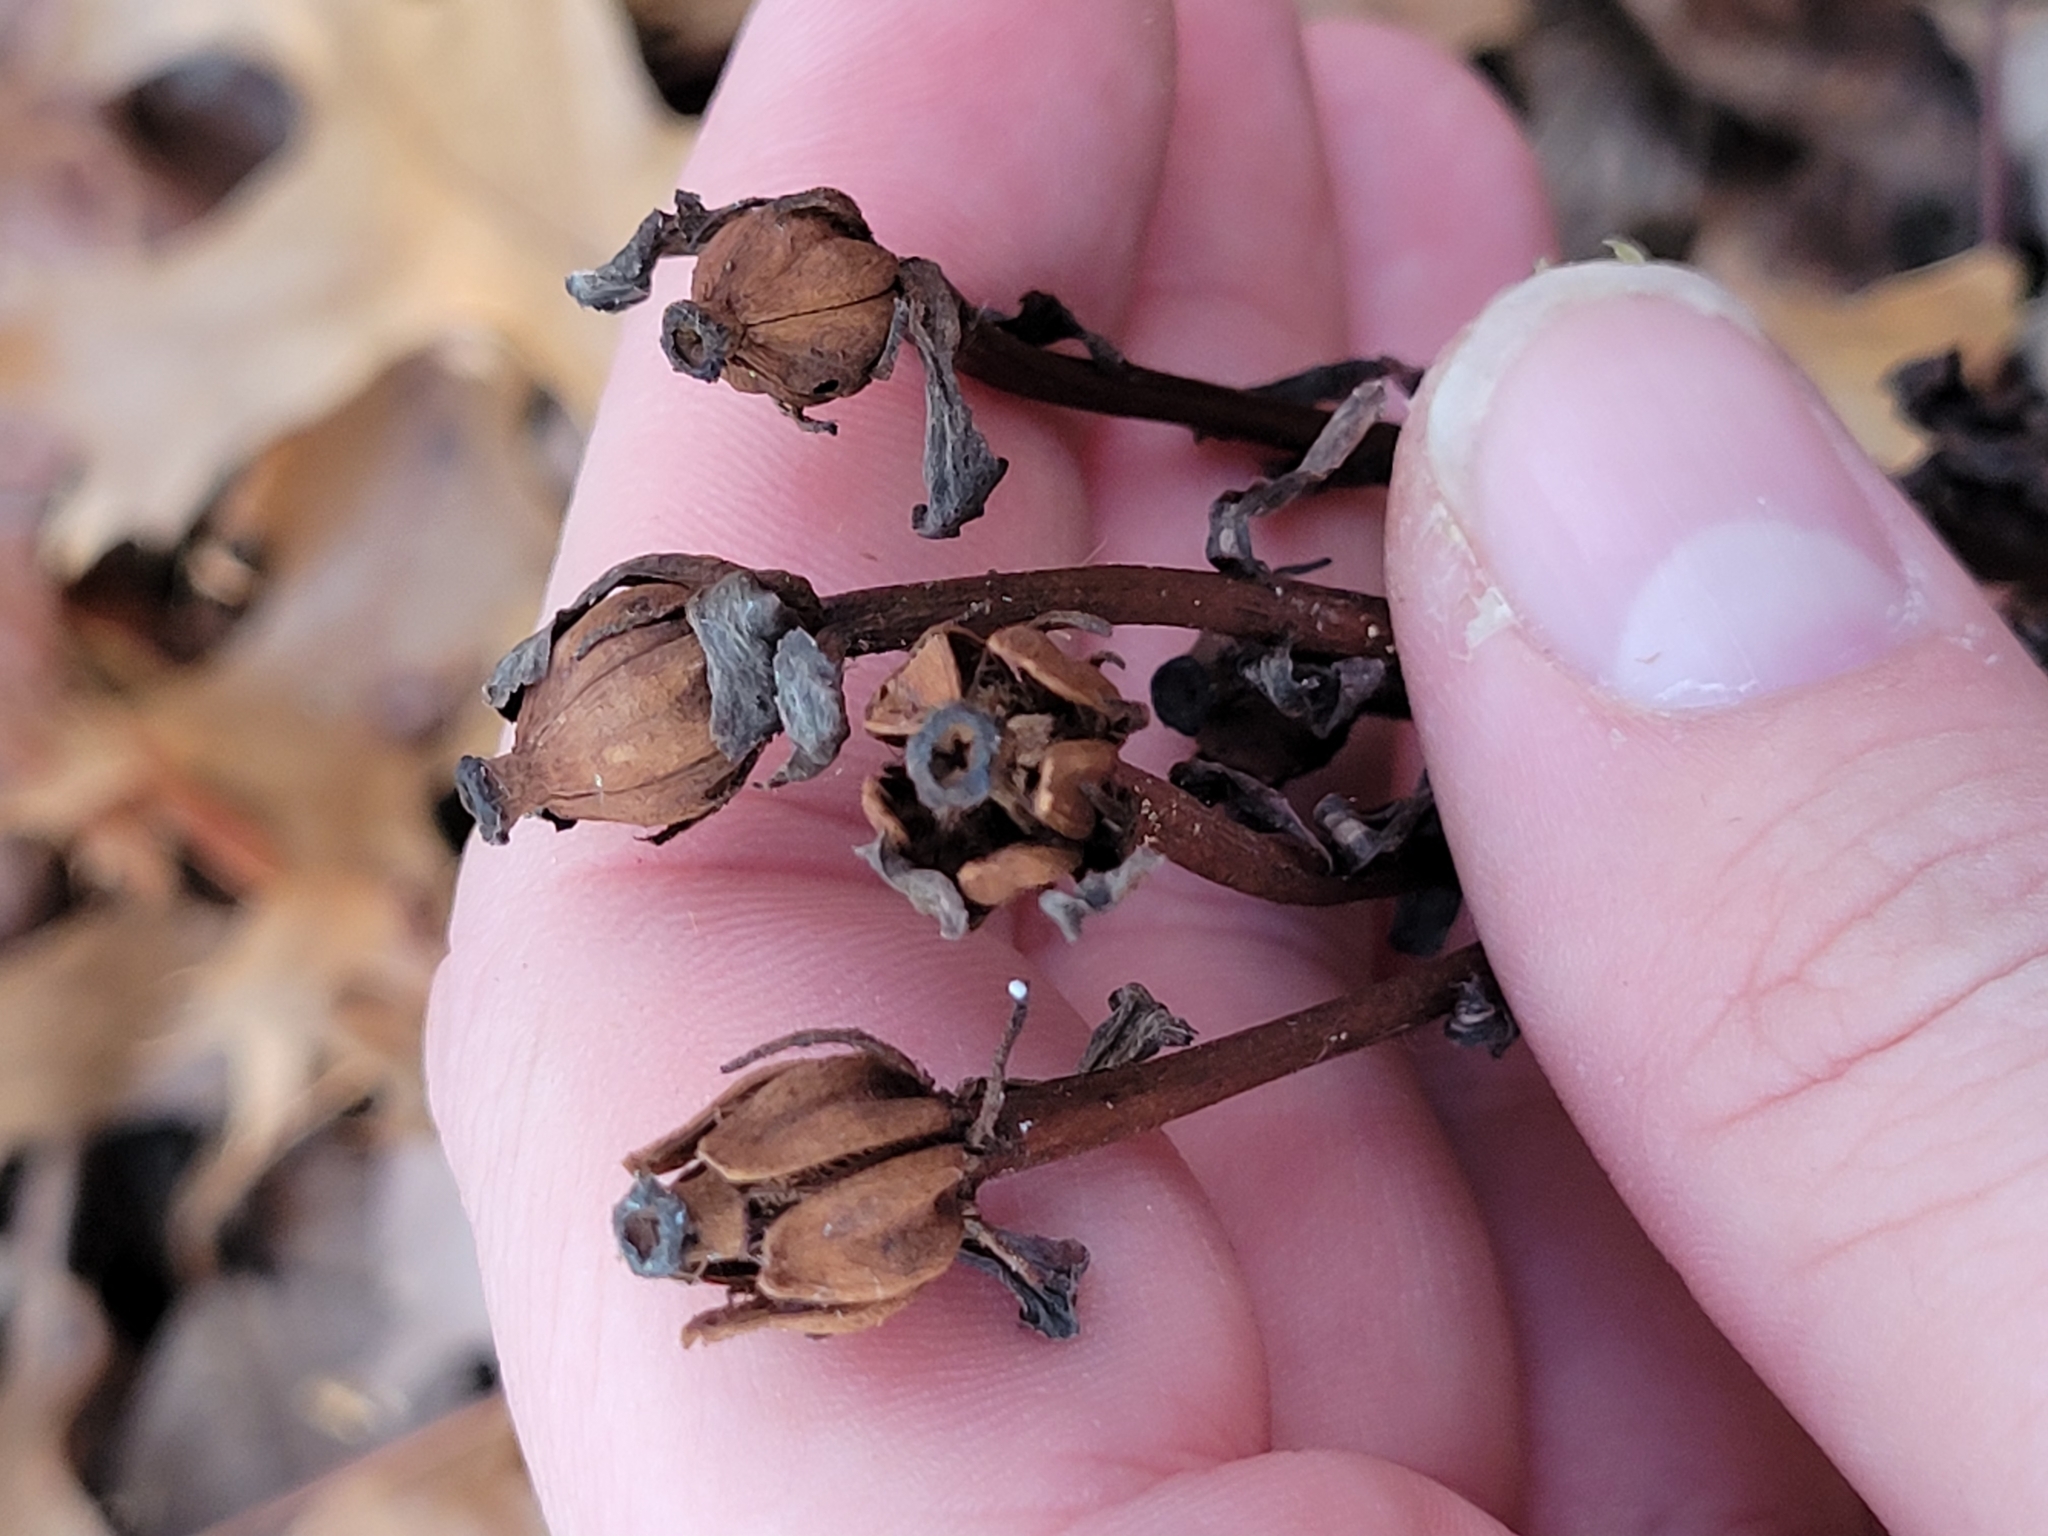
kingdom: Plantae
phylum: Tracheophyta
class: Magnoliopsida
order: Ericales
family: Ericaceae
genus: Monotropa
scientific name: Monotropa uniflora
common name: Convulsion root
